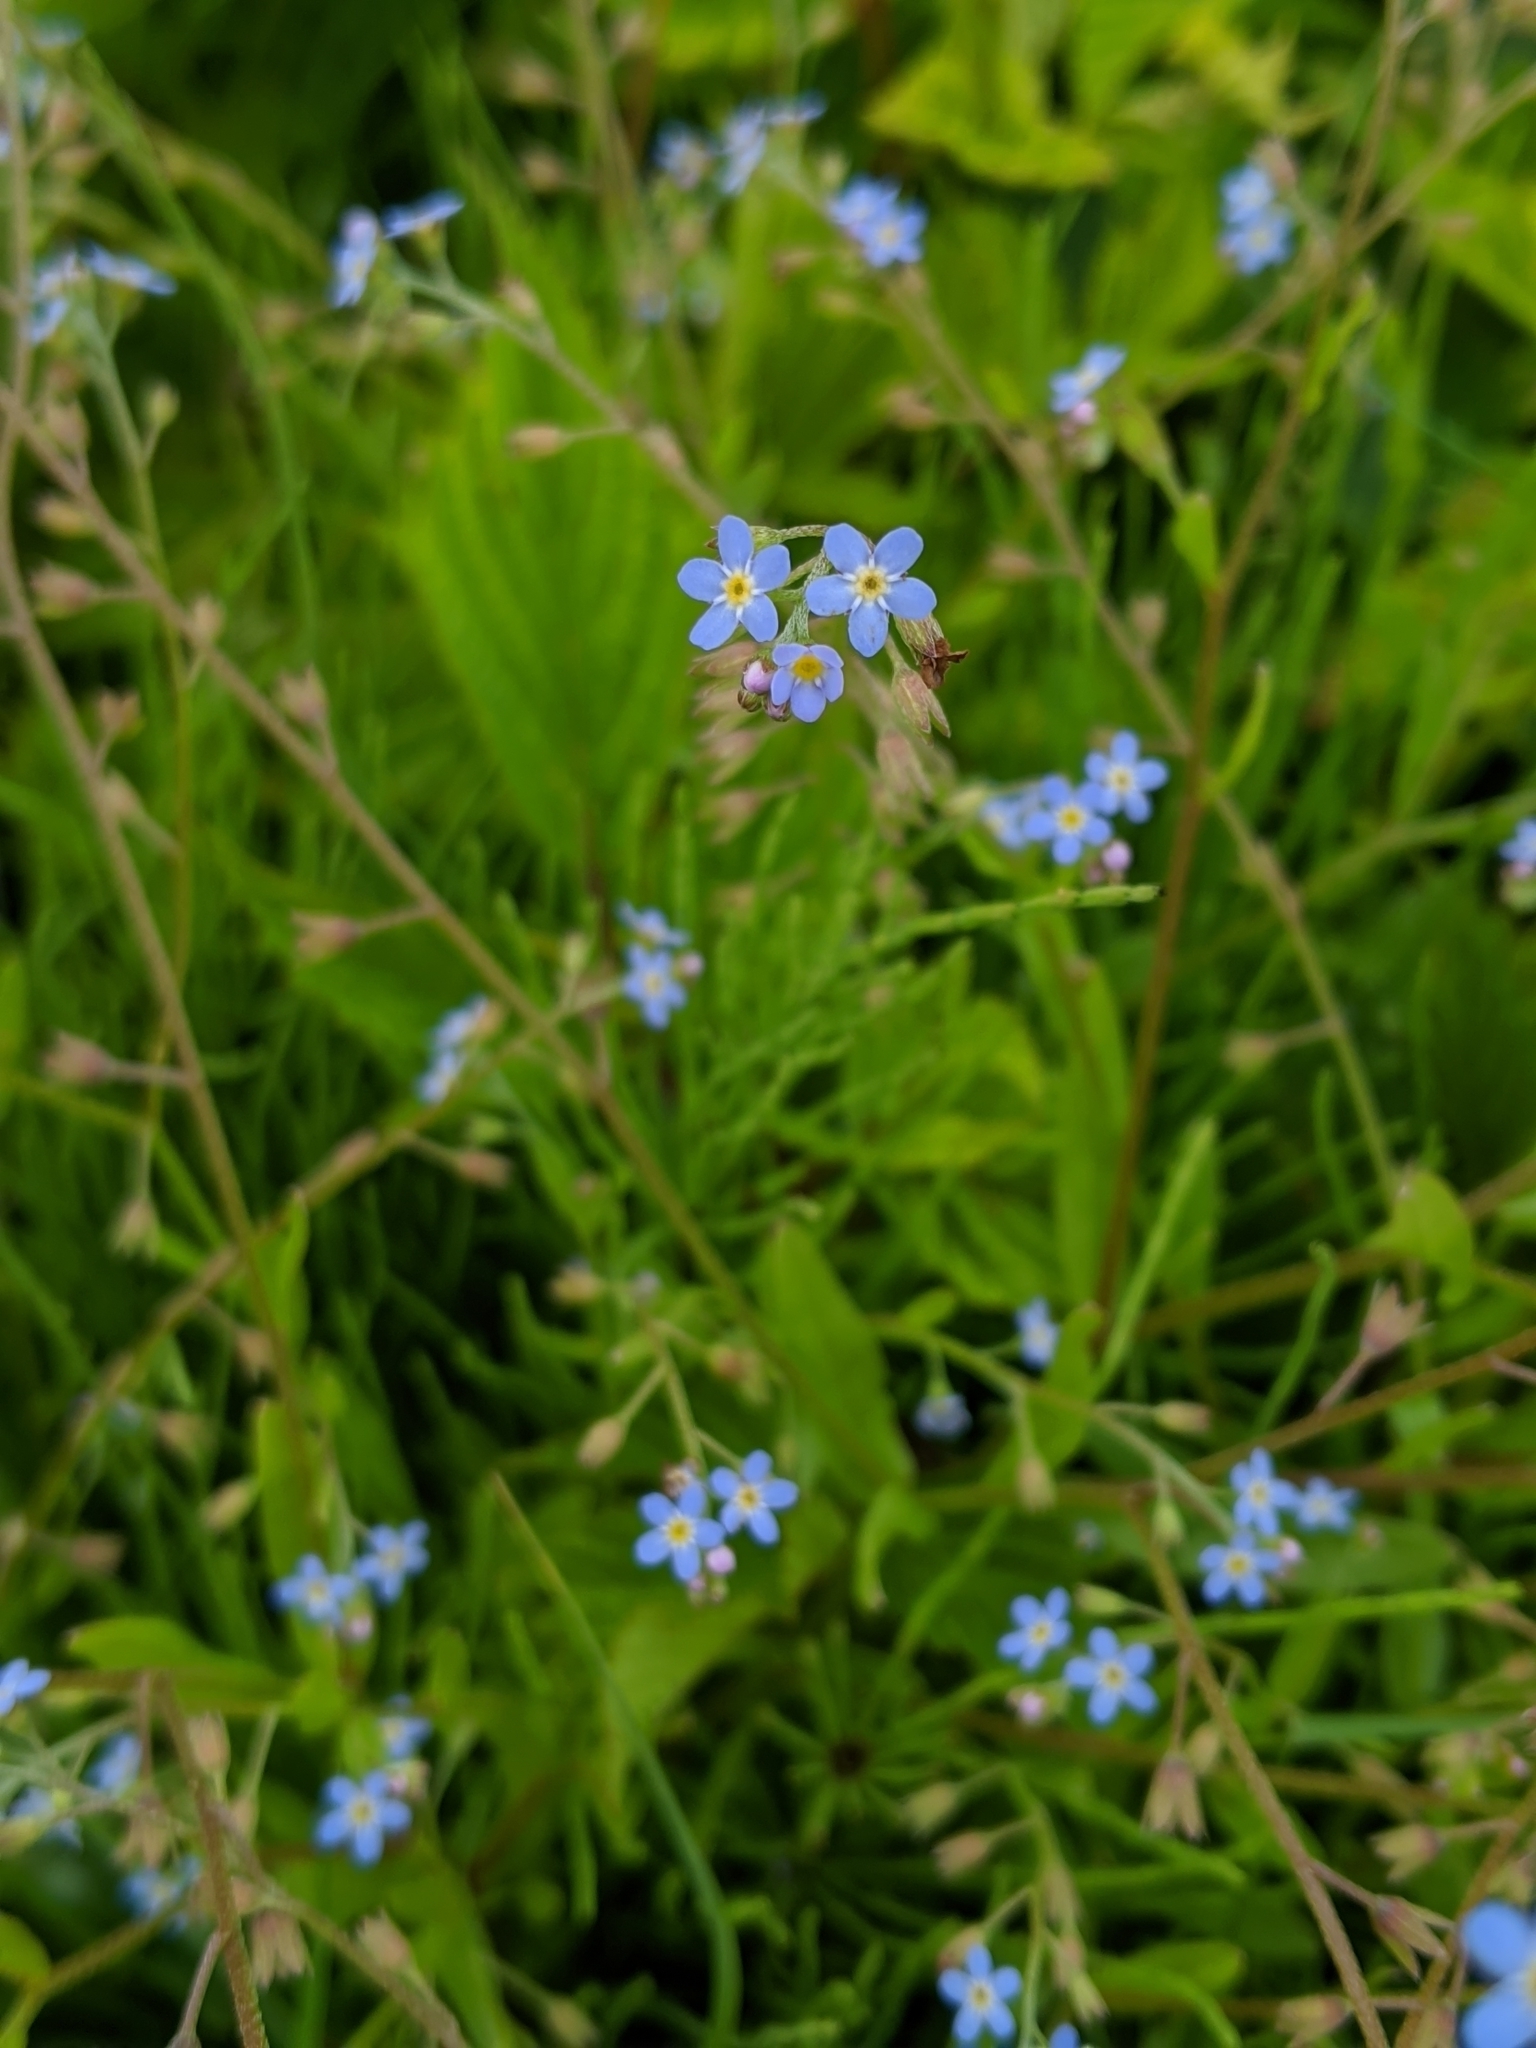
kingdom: Plantae
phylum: Tracheophyta
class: Magnoliopsida
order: Boraginales
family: Boraginaceae
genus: Myosotis
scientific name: Myosotis arvensis
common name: Field forget-me-not
